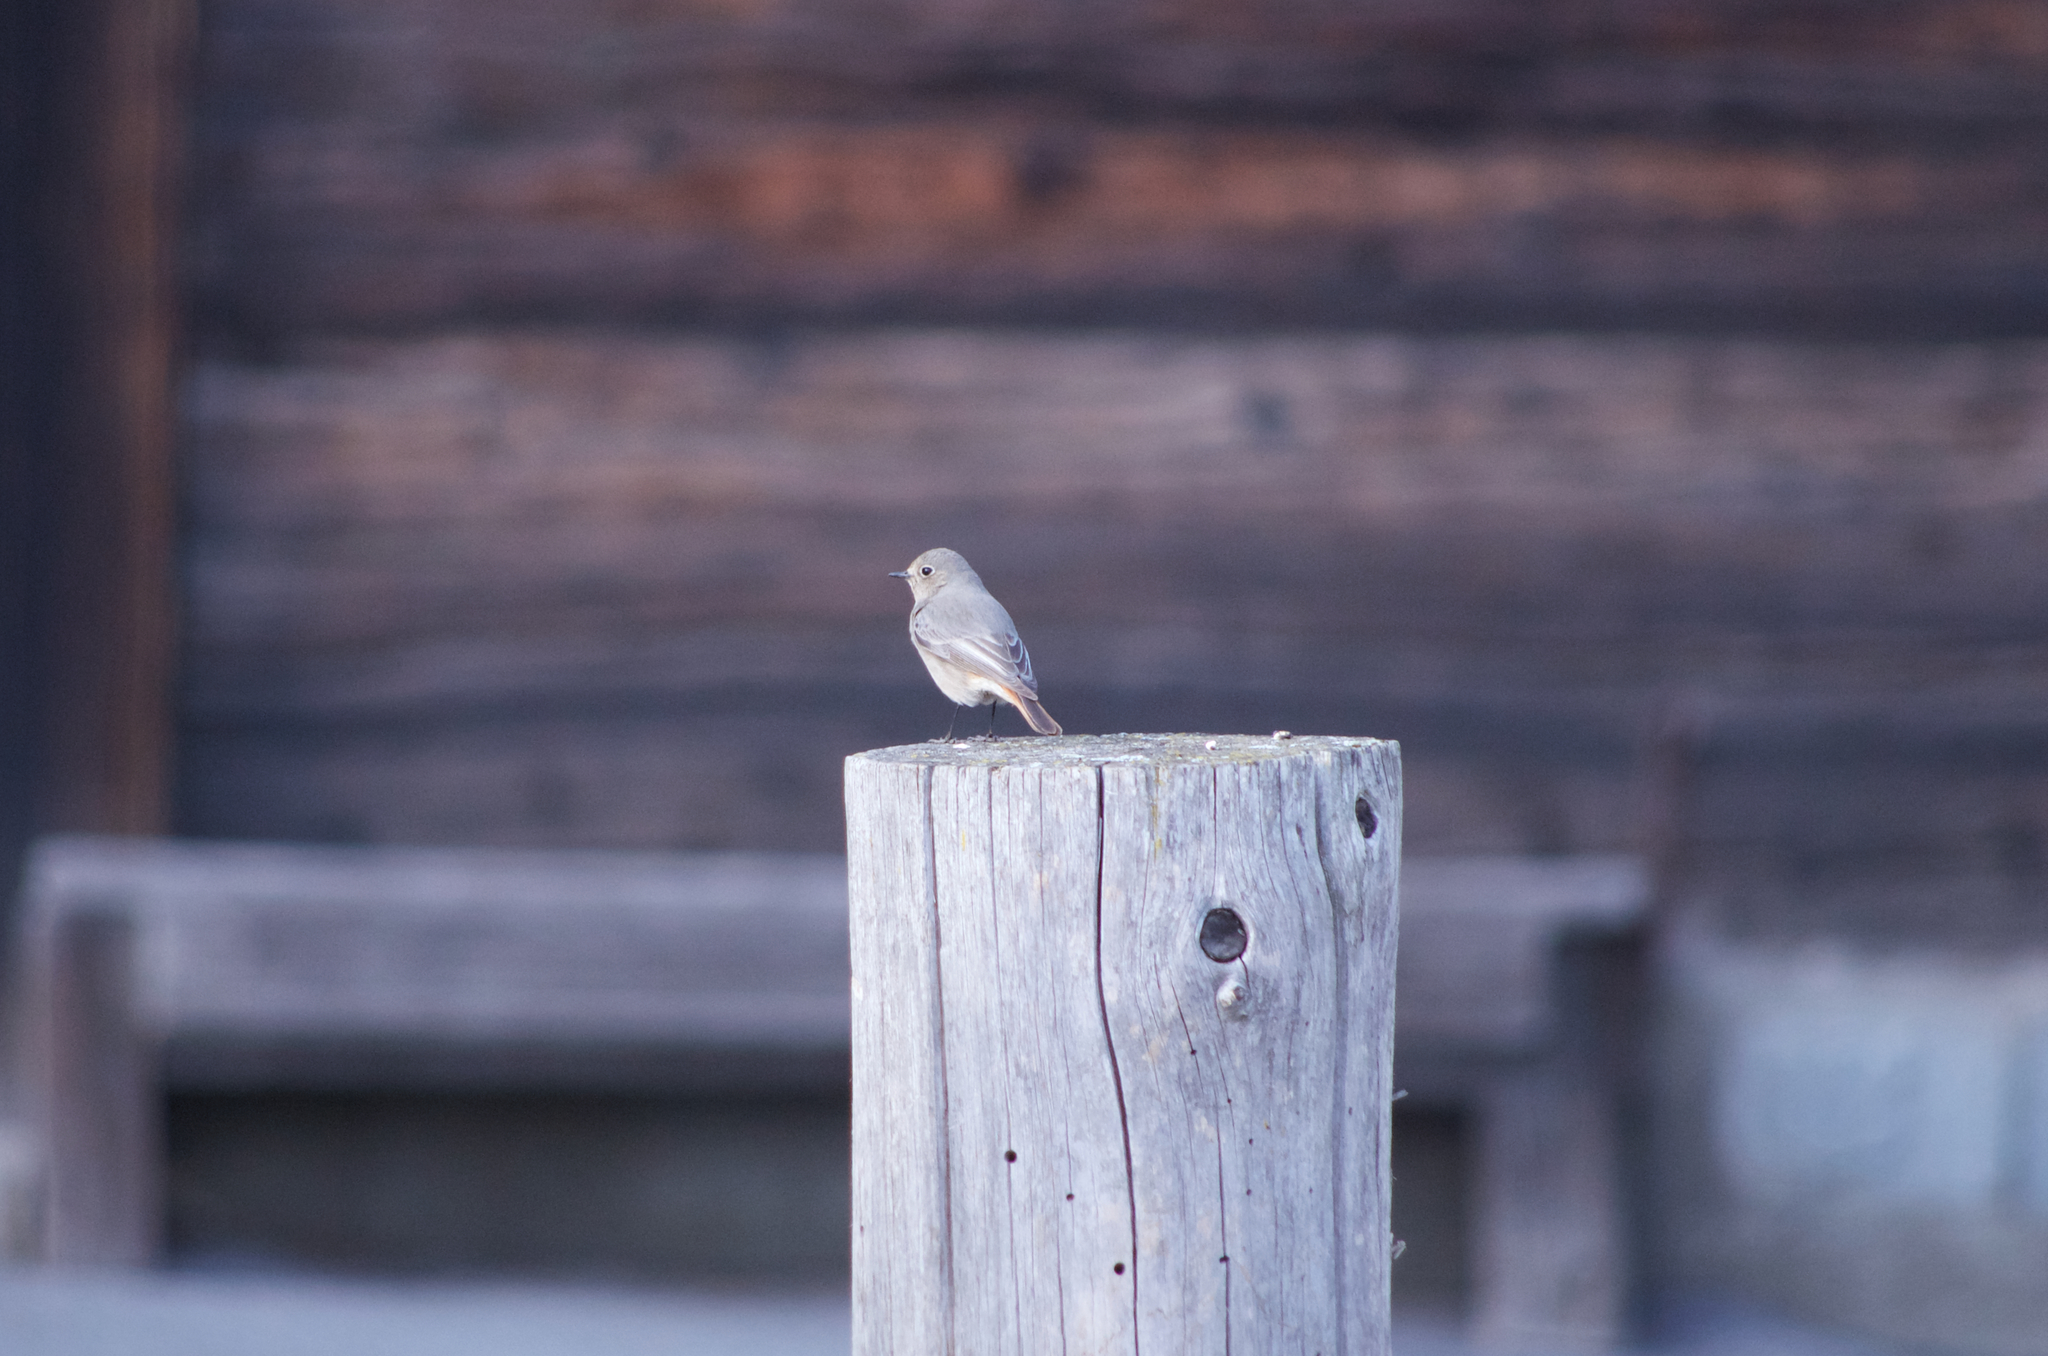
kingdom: Animalia
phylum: Chordata
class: Aves
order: Passeriformes
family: Muscicapidae
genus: Phoenicurus
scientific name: Phoenicurus ochruros
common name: Black redstart
